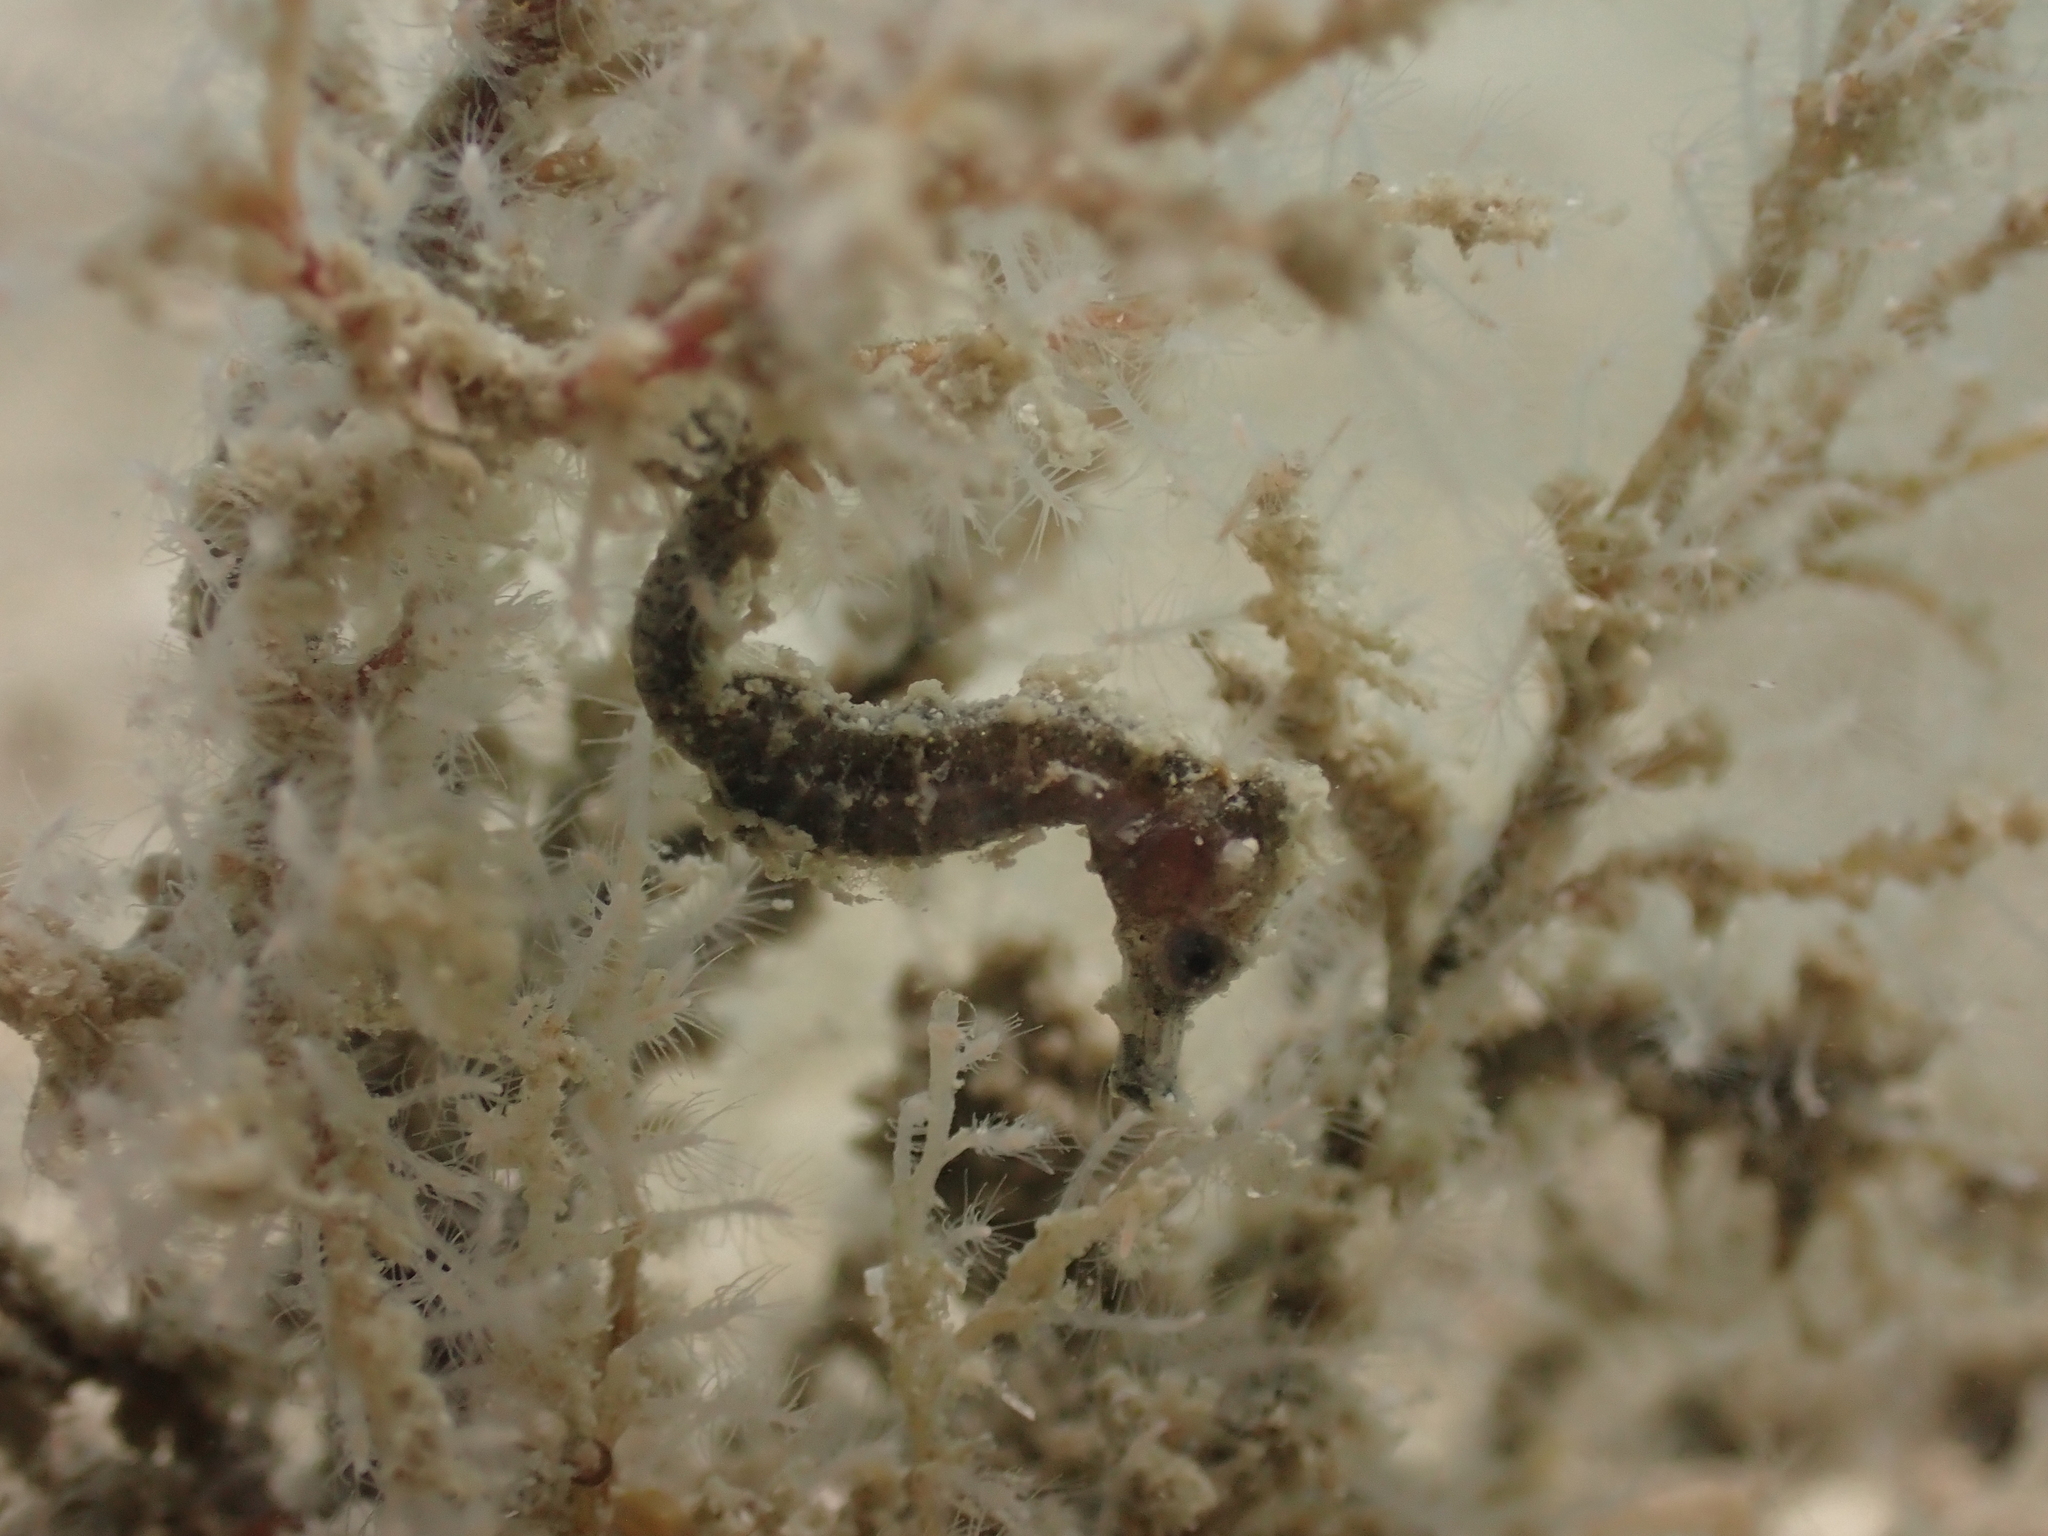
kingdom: Animalia
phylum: Chordata
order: Syngnathiformes
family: Syngnathidae
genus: Hippocampus
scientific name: Hippocampus kuda
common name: Spotted seahorse
